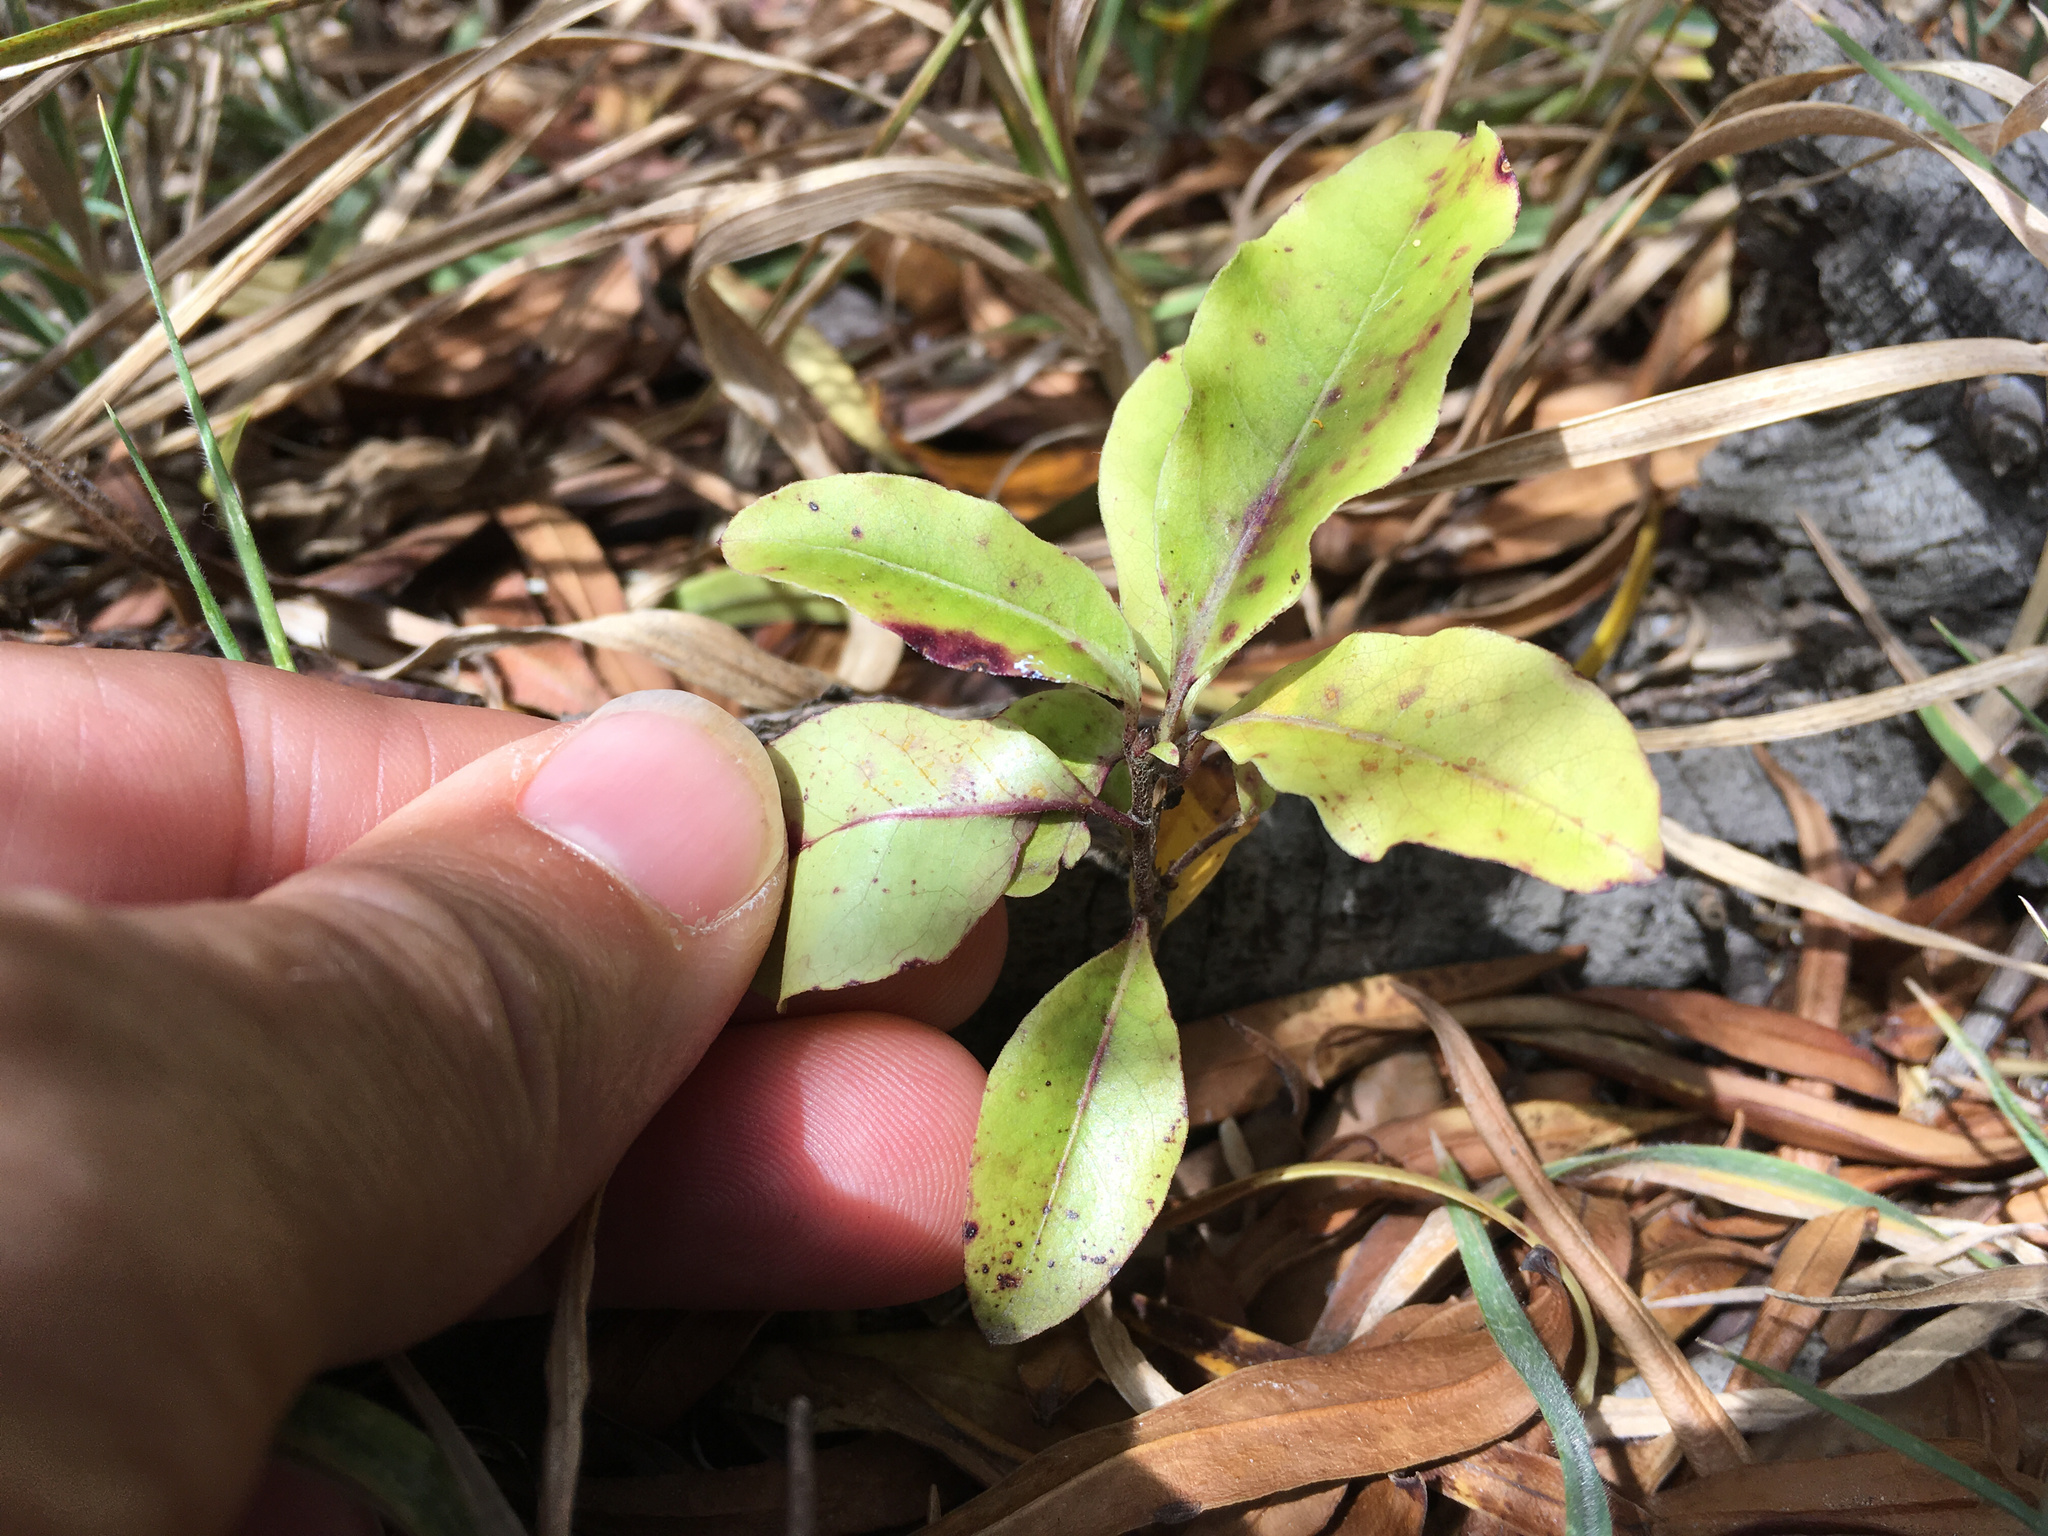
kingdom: Plantae
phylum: Tracheophyta
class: Magnoliopsida
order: Apiales
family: Pittosporaceae
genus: Pittosporum
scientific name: Pittosporum tenuifolium
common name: Kohuhu
